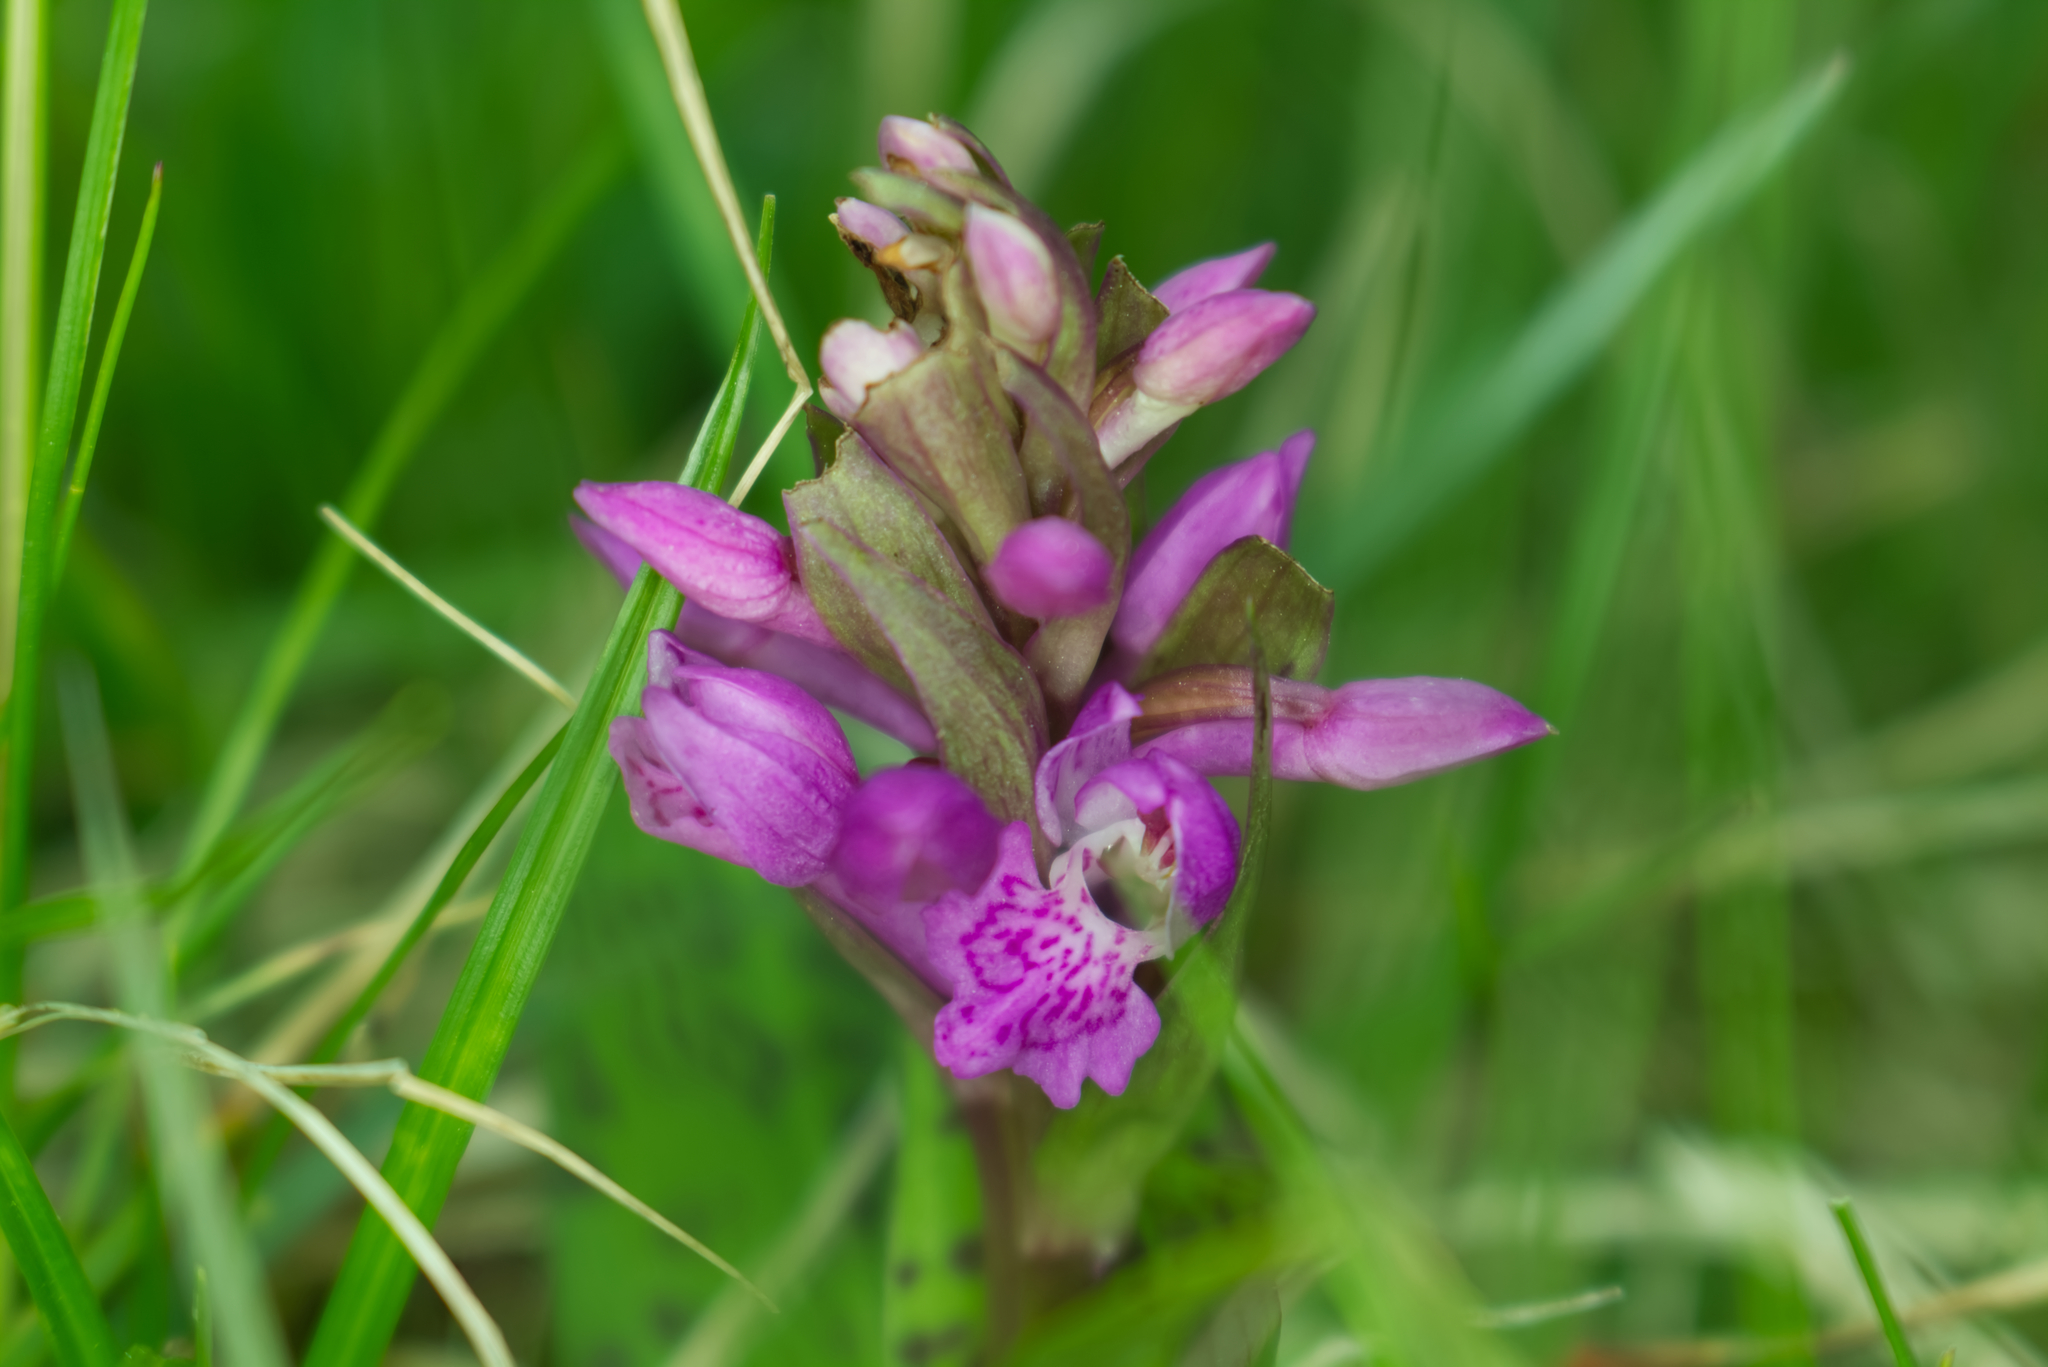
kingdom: Plantae
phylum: Tracheophyta
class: Liliopsida
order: Asparagales
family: Orchidaceae
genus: Dactylorhiza
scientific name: Dactylorhiza majalis
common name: Marsh orchid
